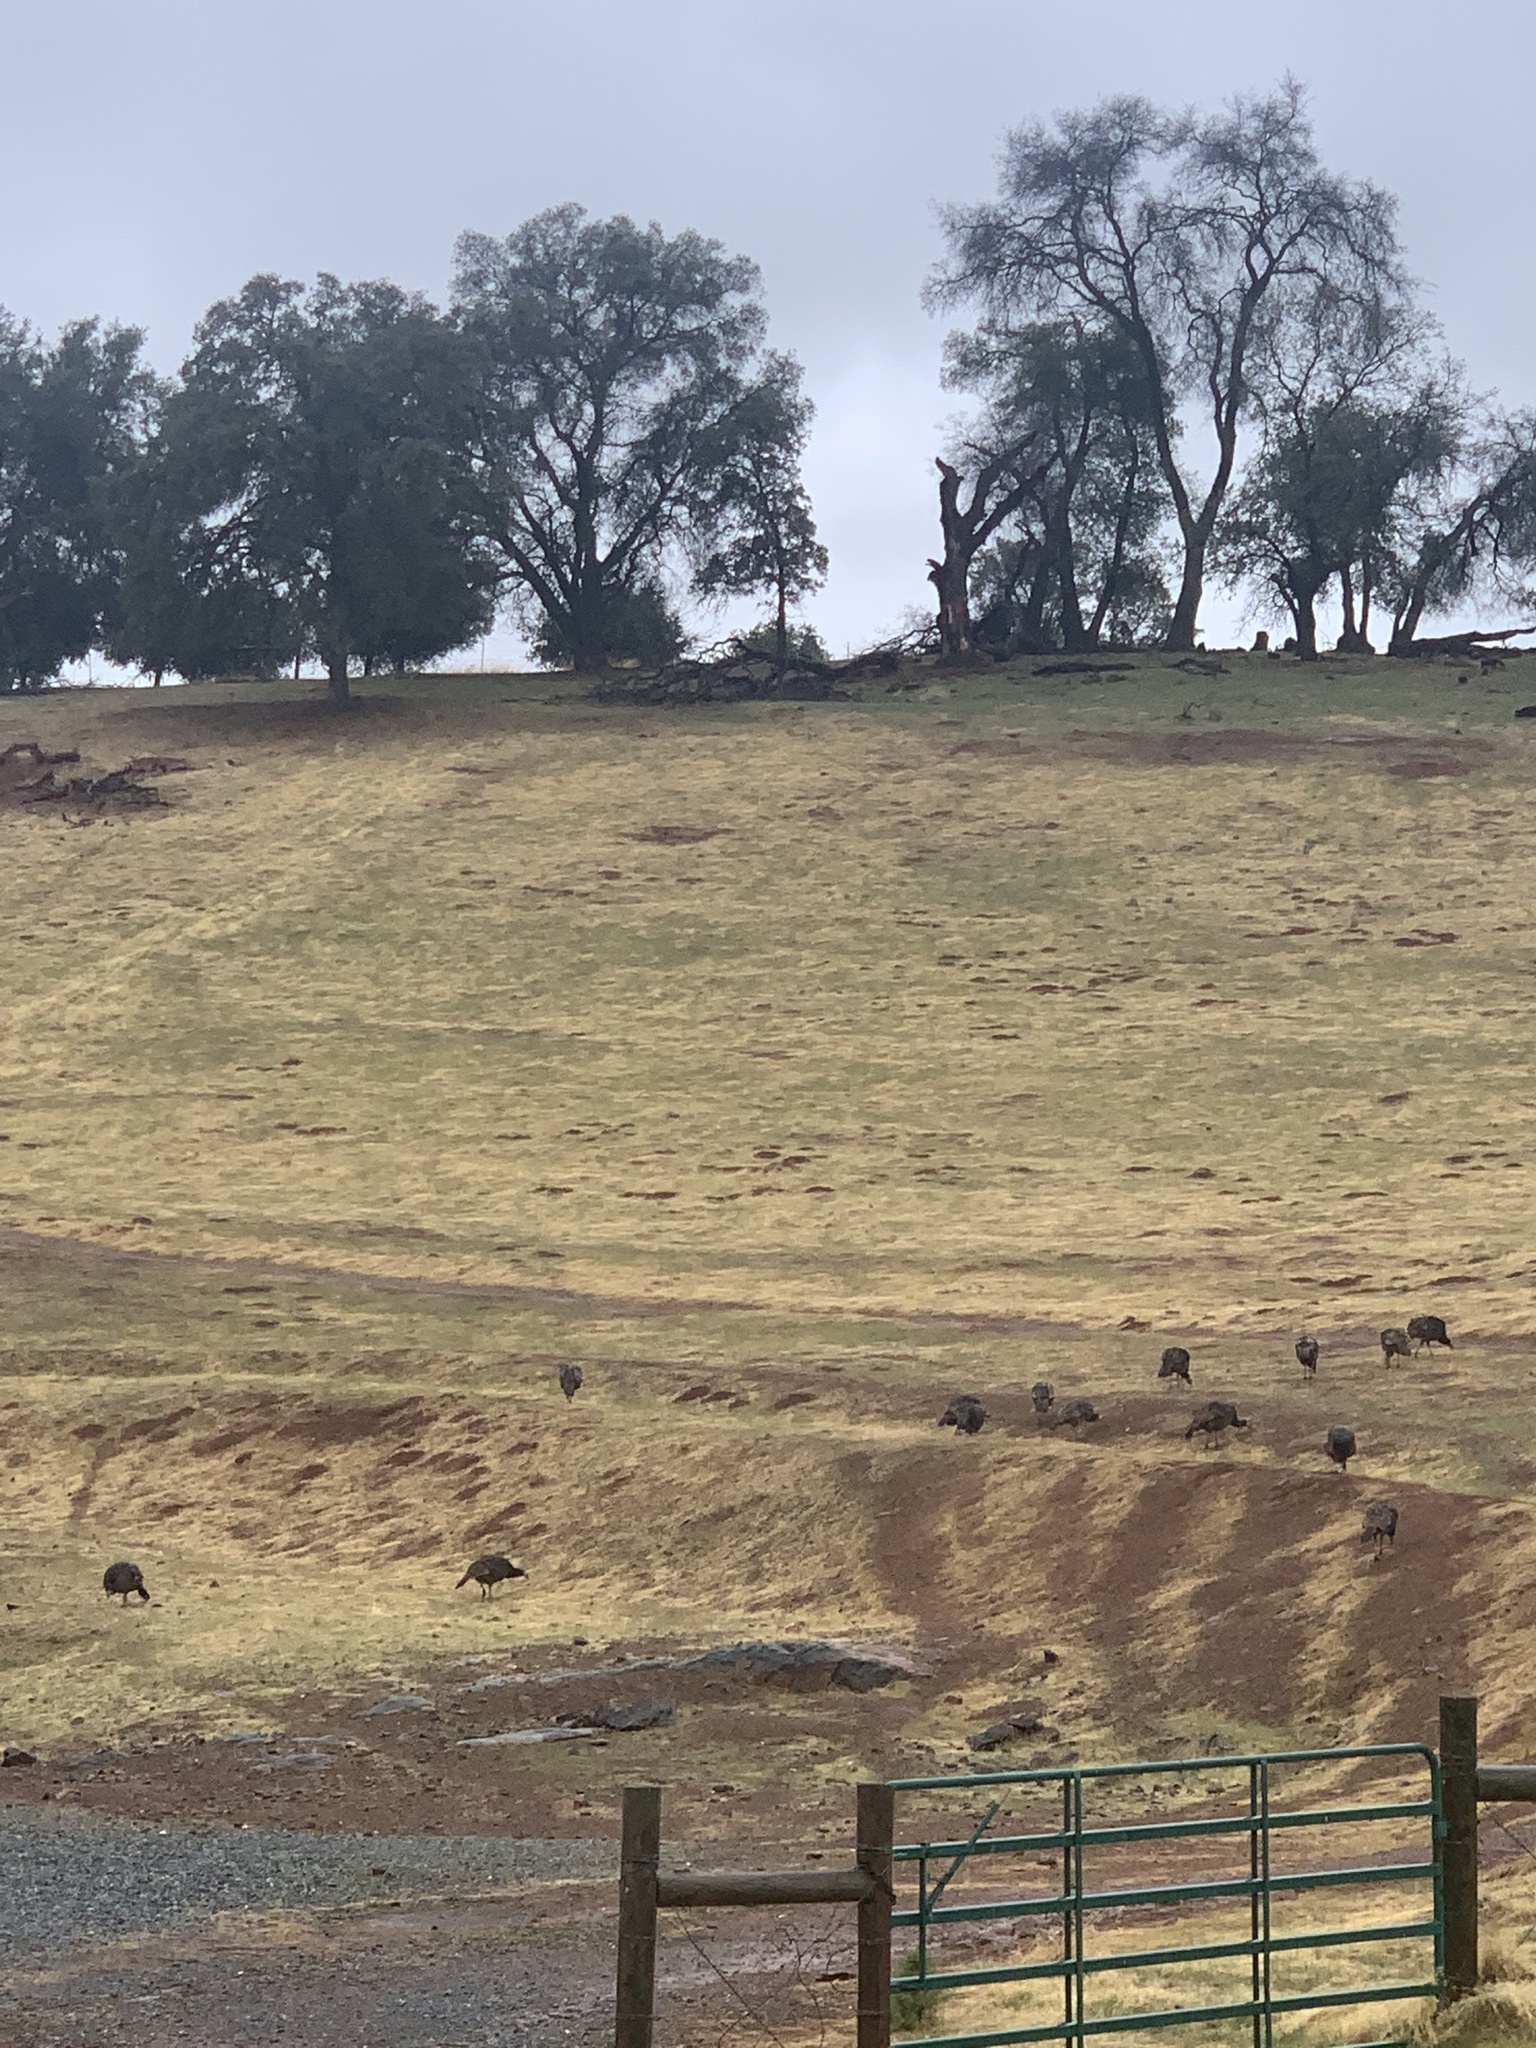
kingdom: Animalia
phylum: Chordata
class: Aves
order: Galliformes
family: Phasianidae
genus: Meleagris
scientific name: Meleagris gallopavo
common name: Wild turkey
